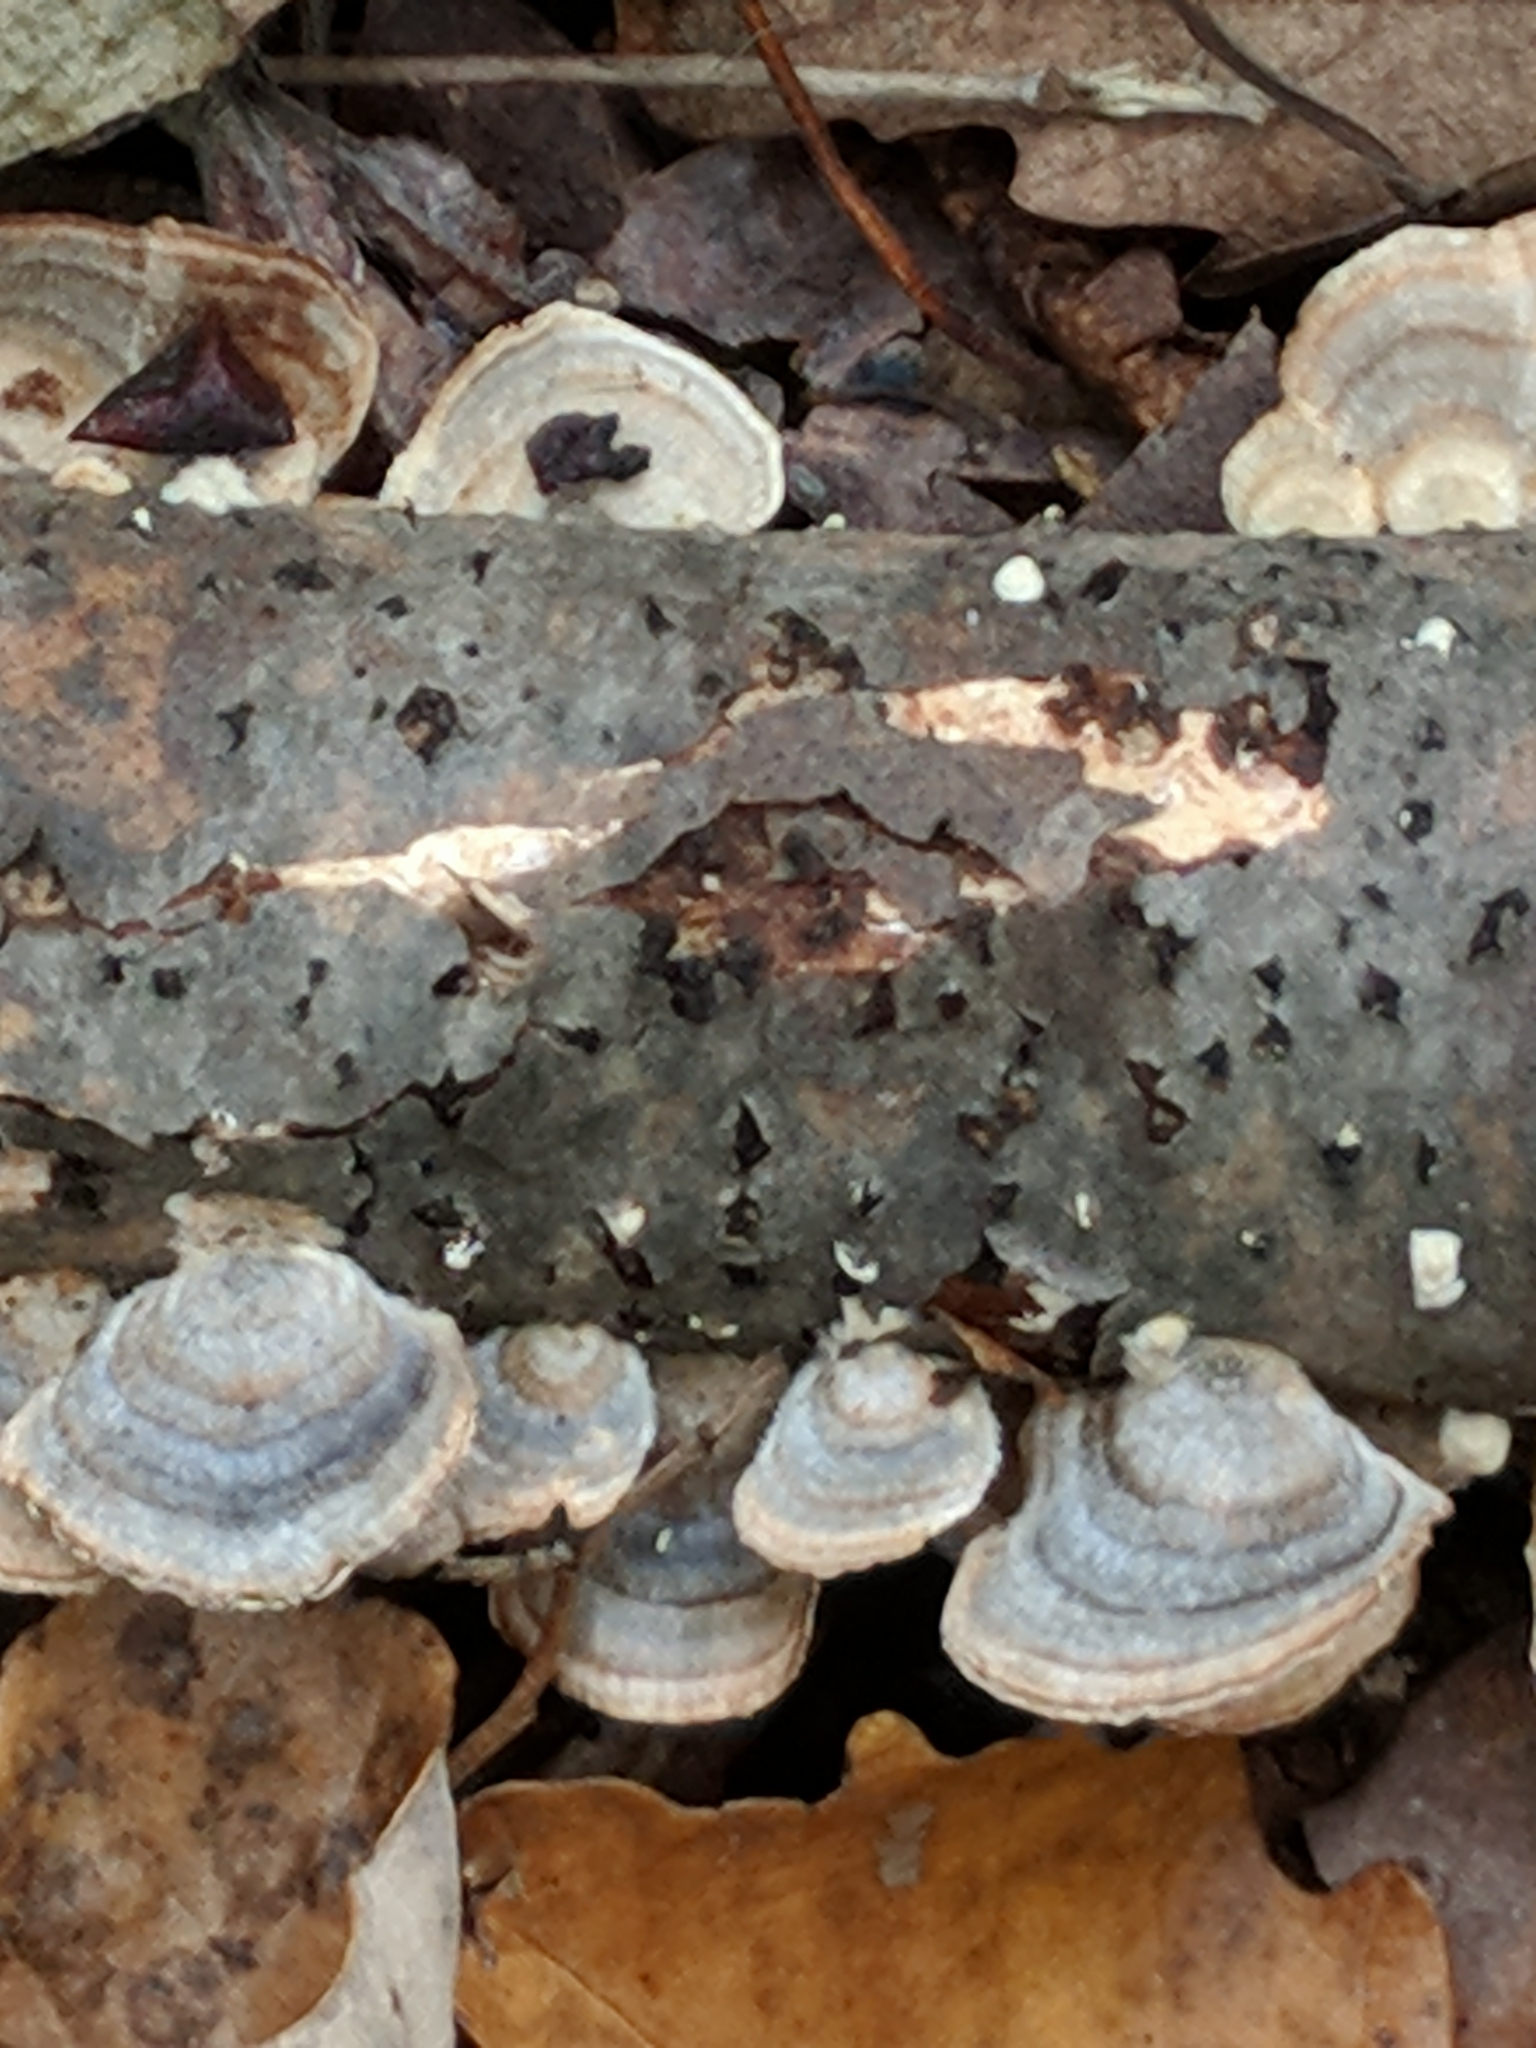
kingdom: Fungi
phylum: Basidiomycota
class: Agaricomycetes
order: Polyporales
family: Polyporaceae
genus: Trametes
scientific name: Trametes versicolor
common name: Turkeytail
